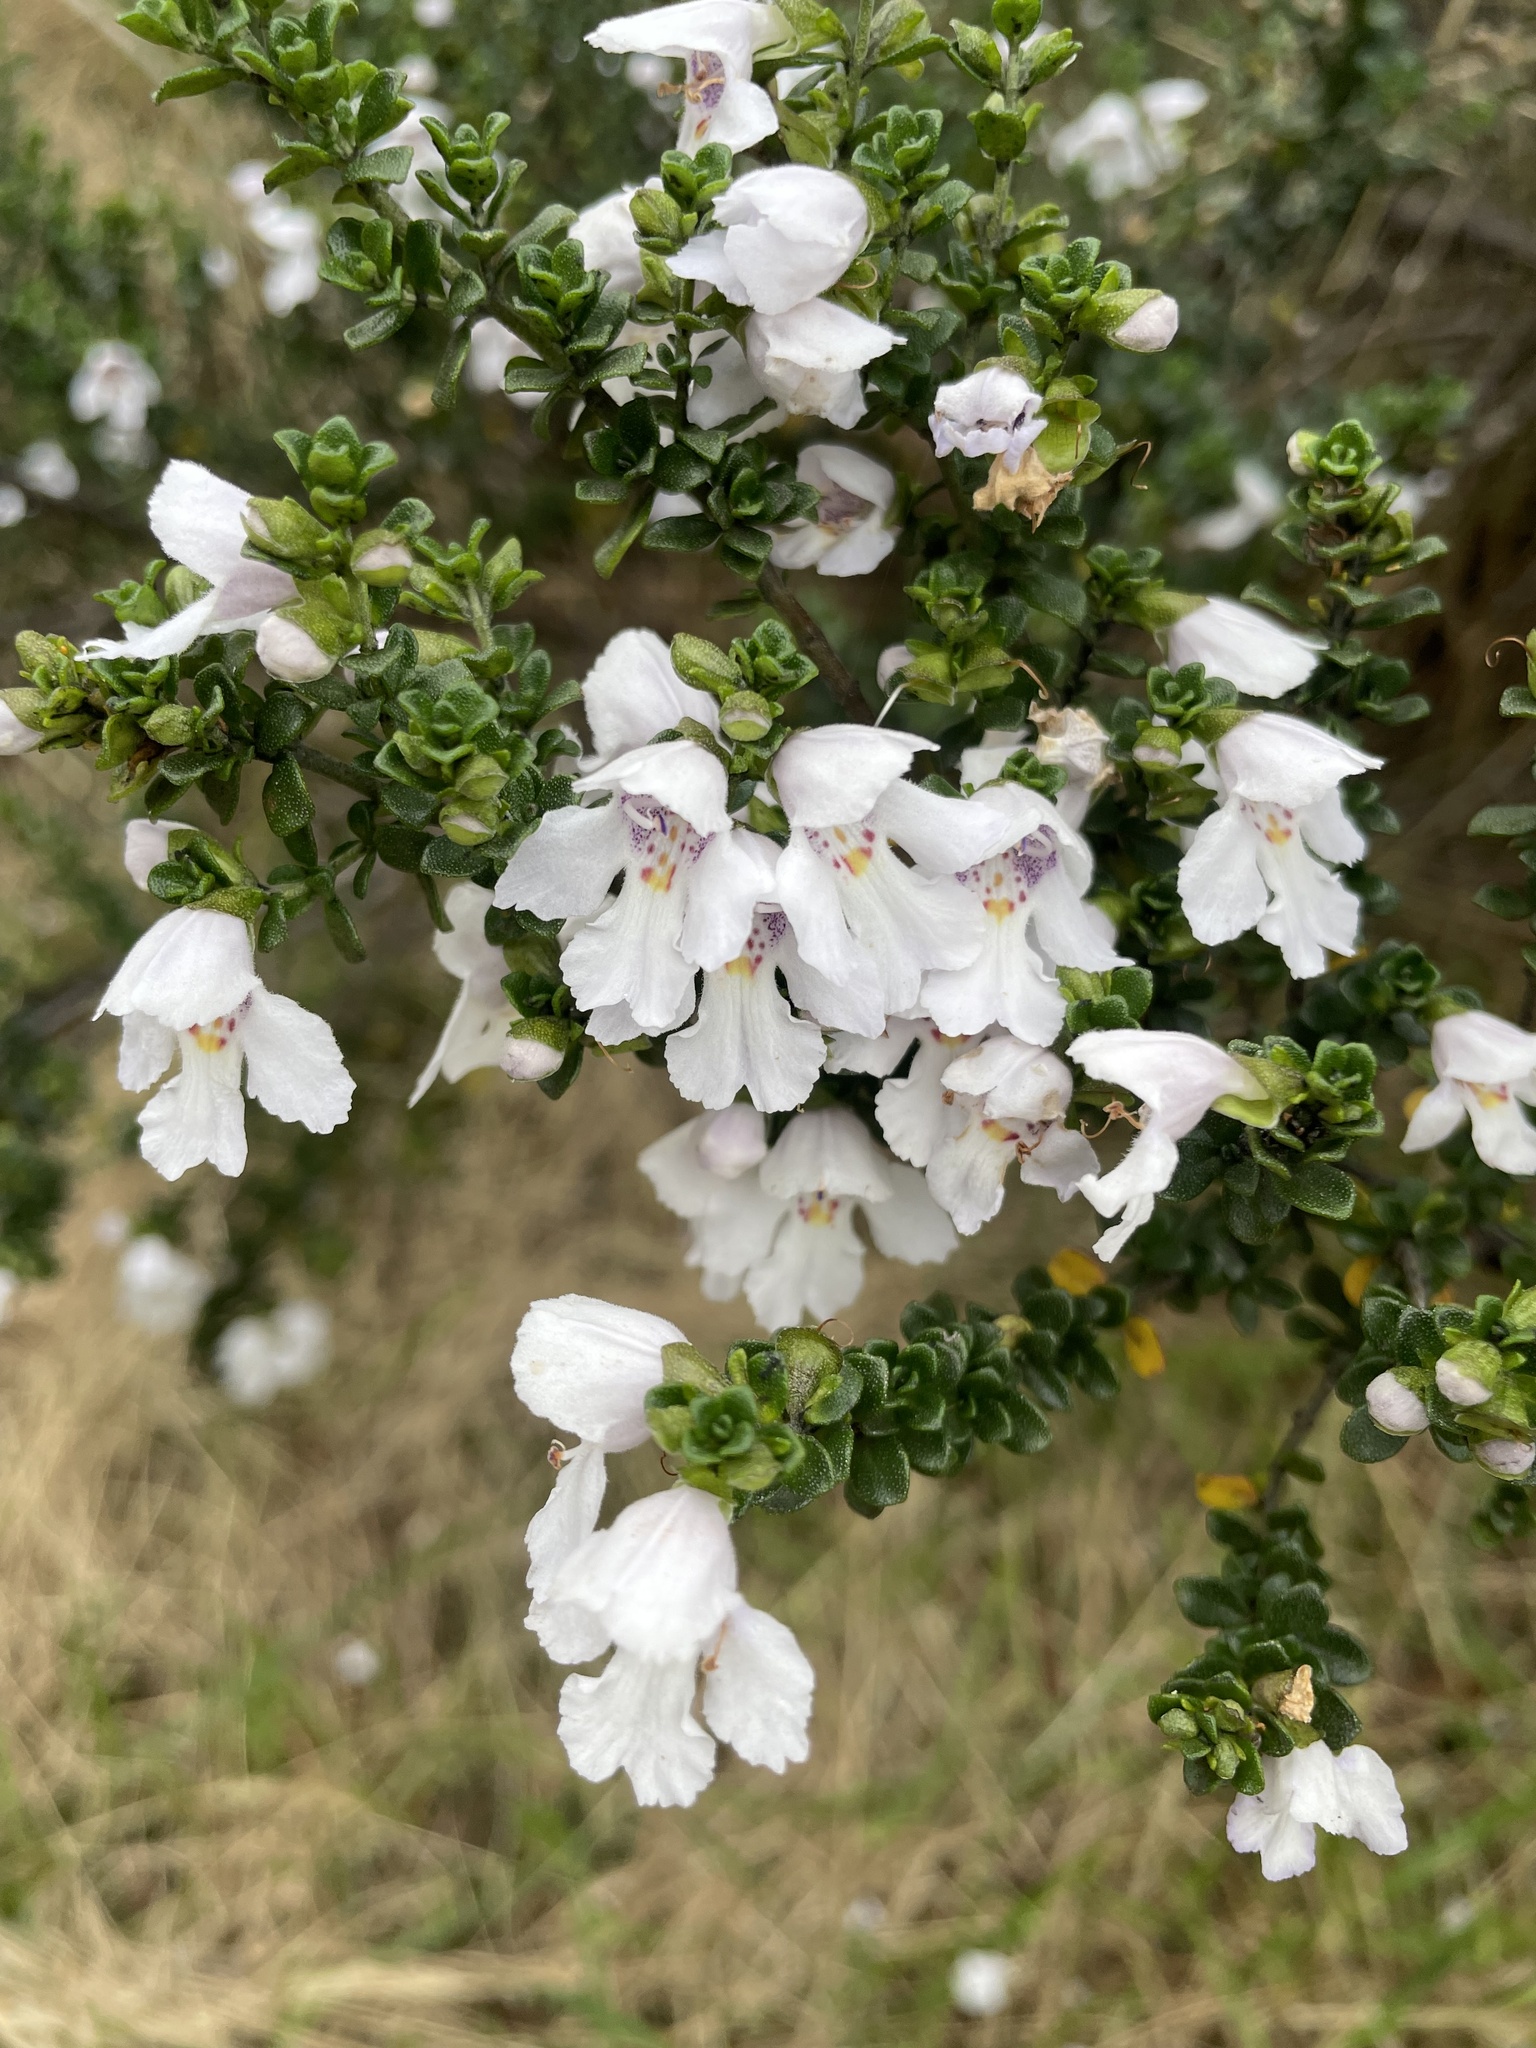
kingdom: Plantae
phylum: Tracheophyta
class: Magnoliopsida
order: Lamiales
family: Lamiaceae
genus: Prostanthera
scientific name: Prostanthera cuneata
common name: Alpine mintbush
